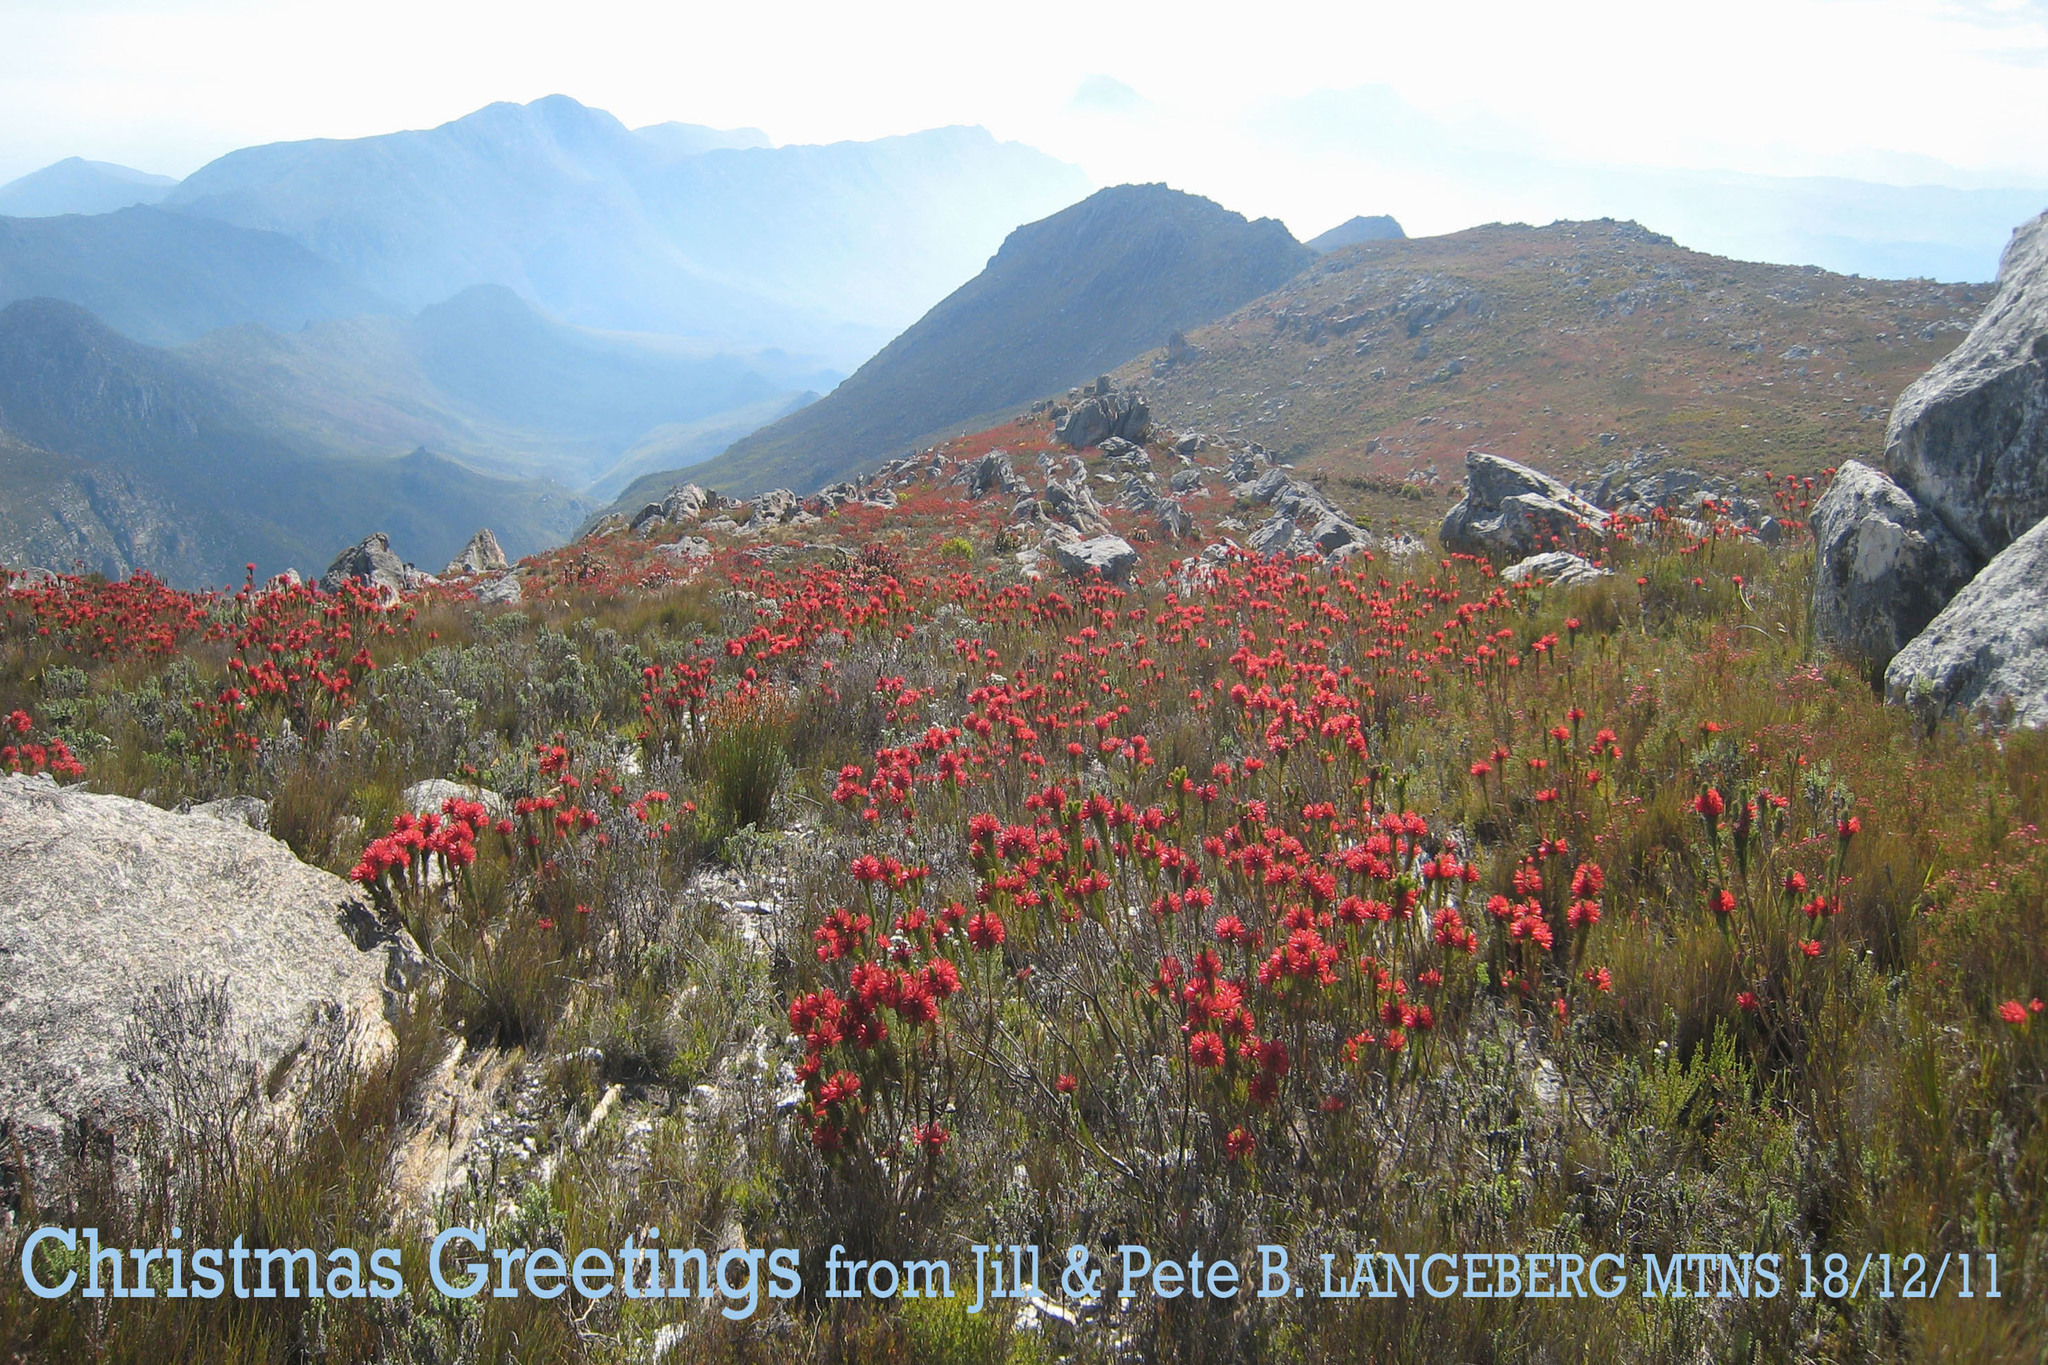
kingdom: Plantae
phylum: Tracheophyta
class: Magnoliopsida
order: Ericales
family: Ericaceae
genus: Erica
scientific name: Erica vestita
